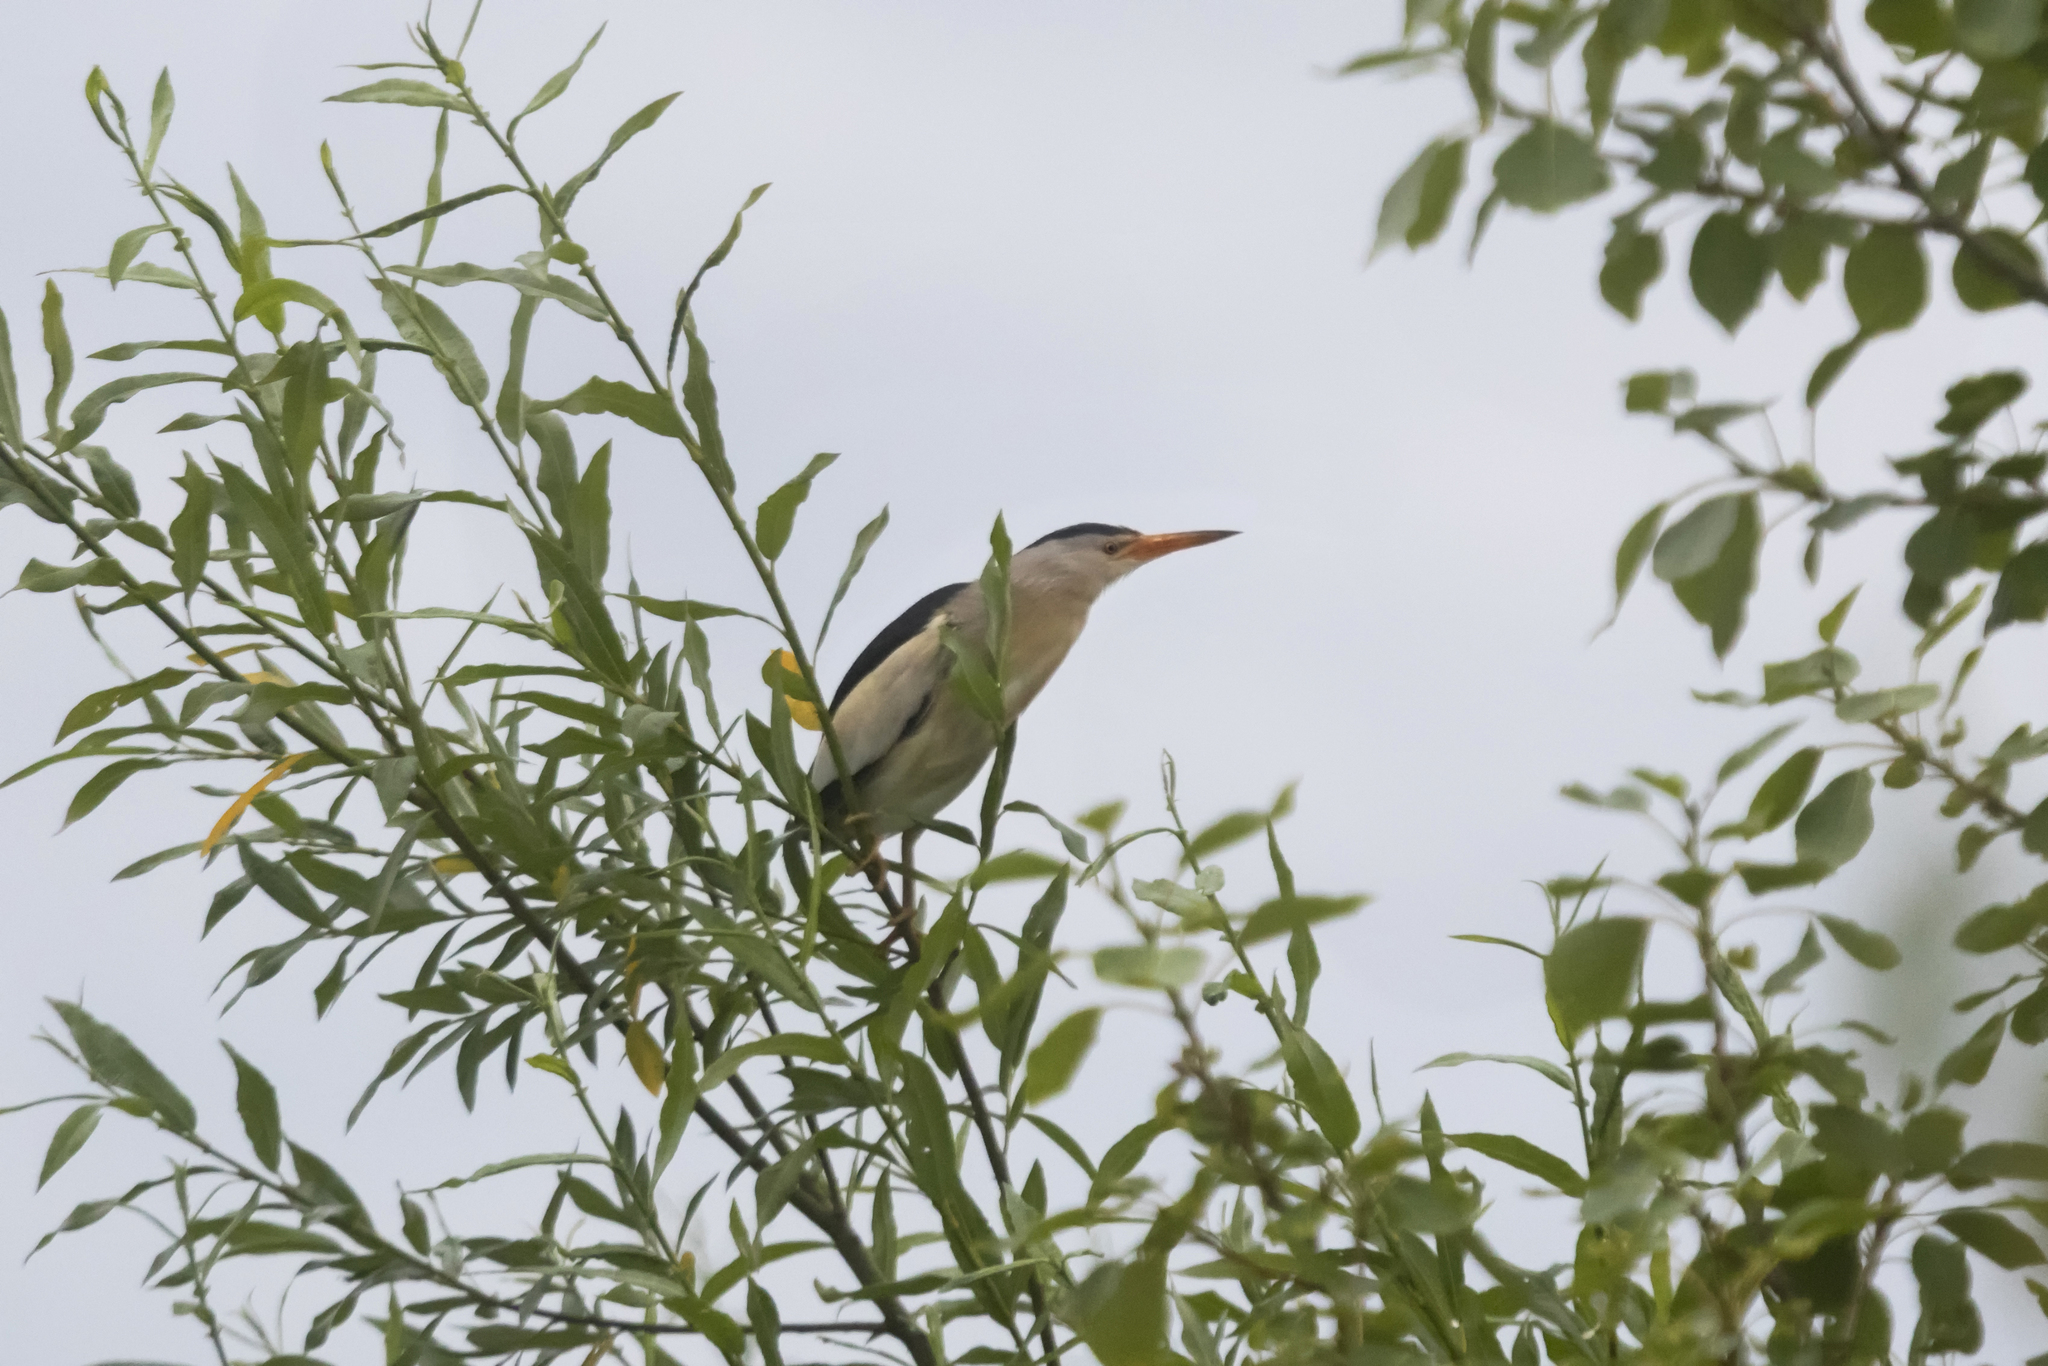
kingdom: Animalia
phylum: Chordata
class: Aves
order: Pelecaniformes
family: Ardeidae
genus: Ixobrychus
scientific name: Ixobrychus minutus
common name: Little bittern
